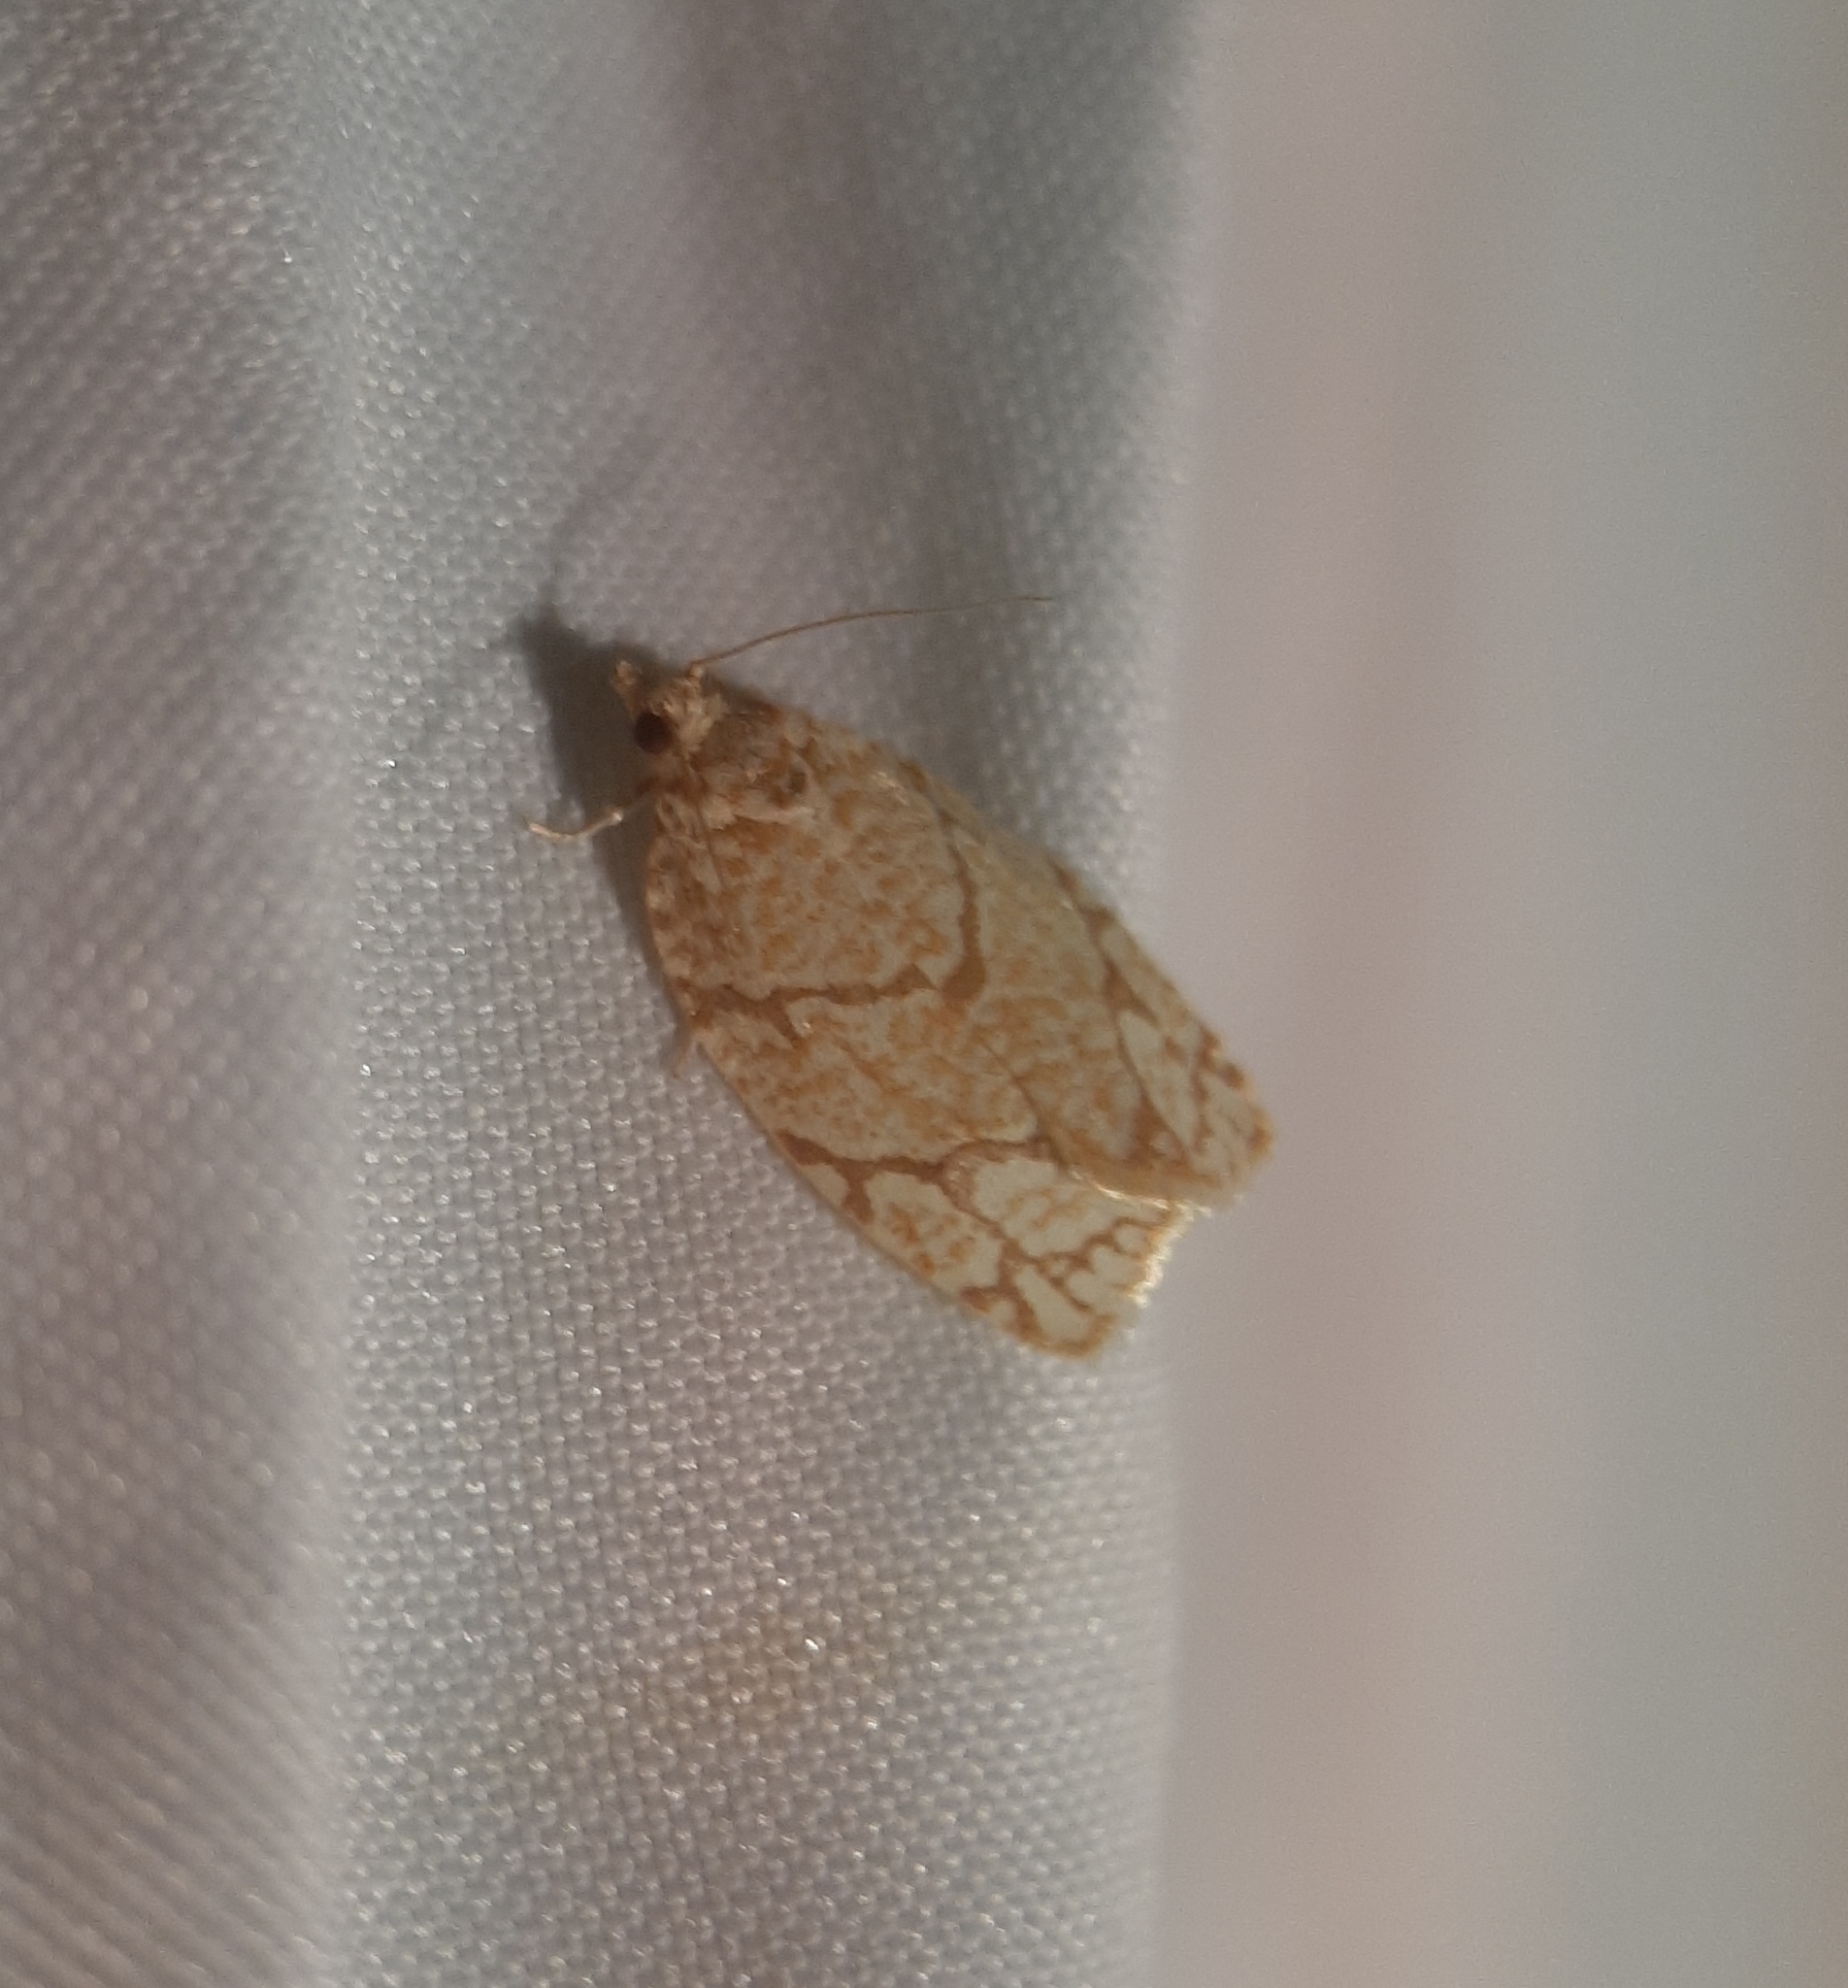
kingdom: Animalia
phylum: Arthropoda
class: Insecta
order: Lepidoptera
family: Tortricidae
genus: Argyrotaenia
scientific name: Argyrotaenia quercifoliana
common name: Yellow-winged oak leafroller moth
